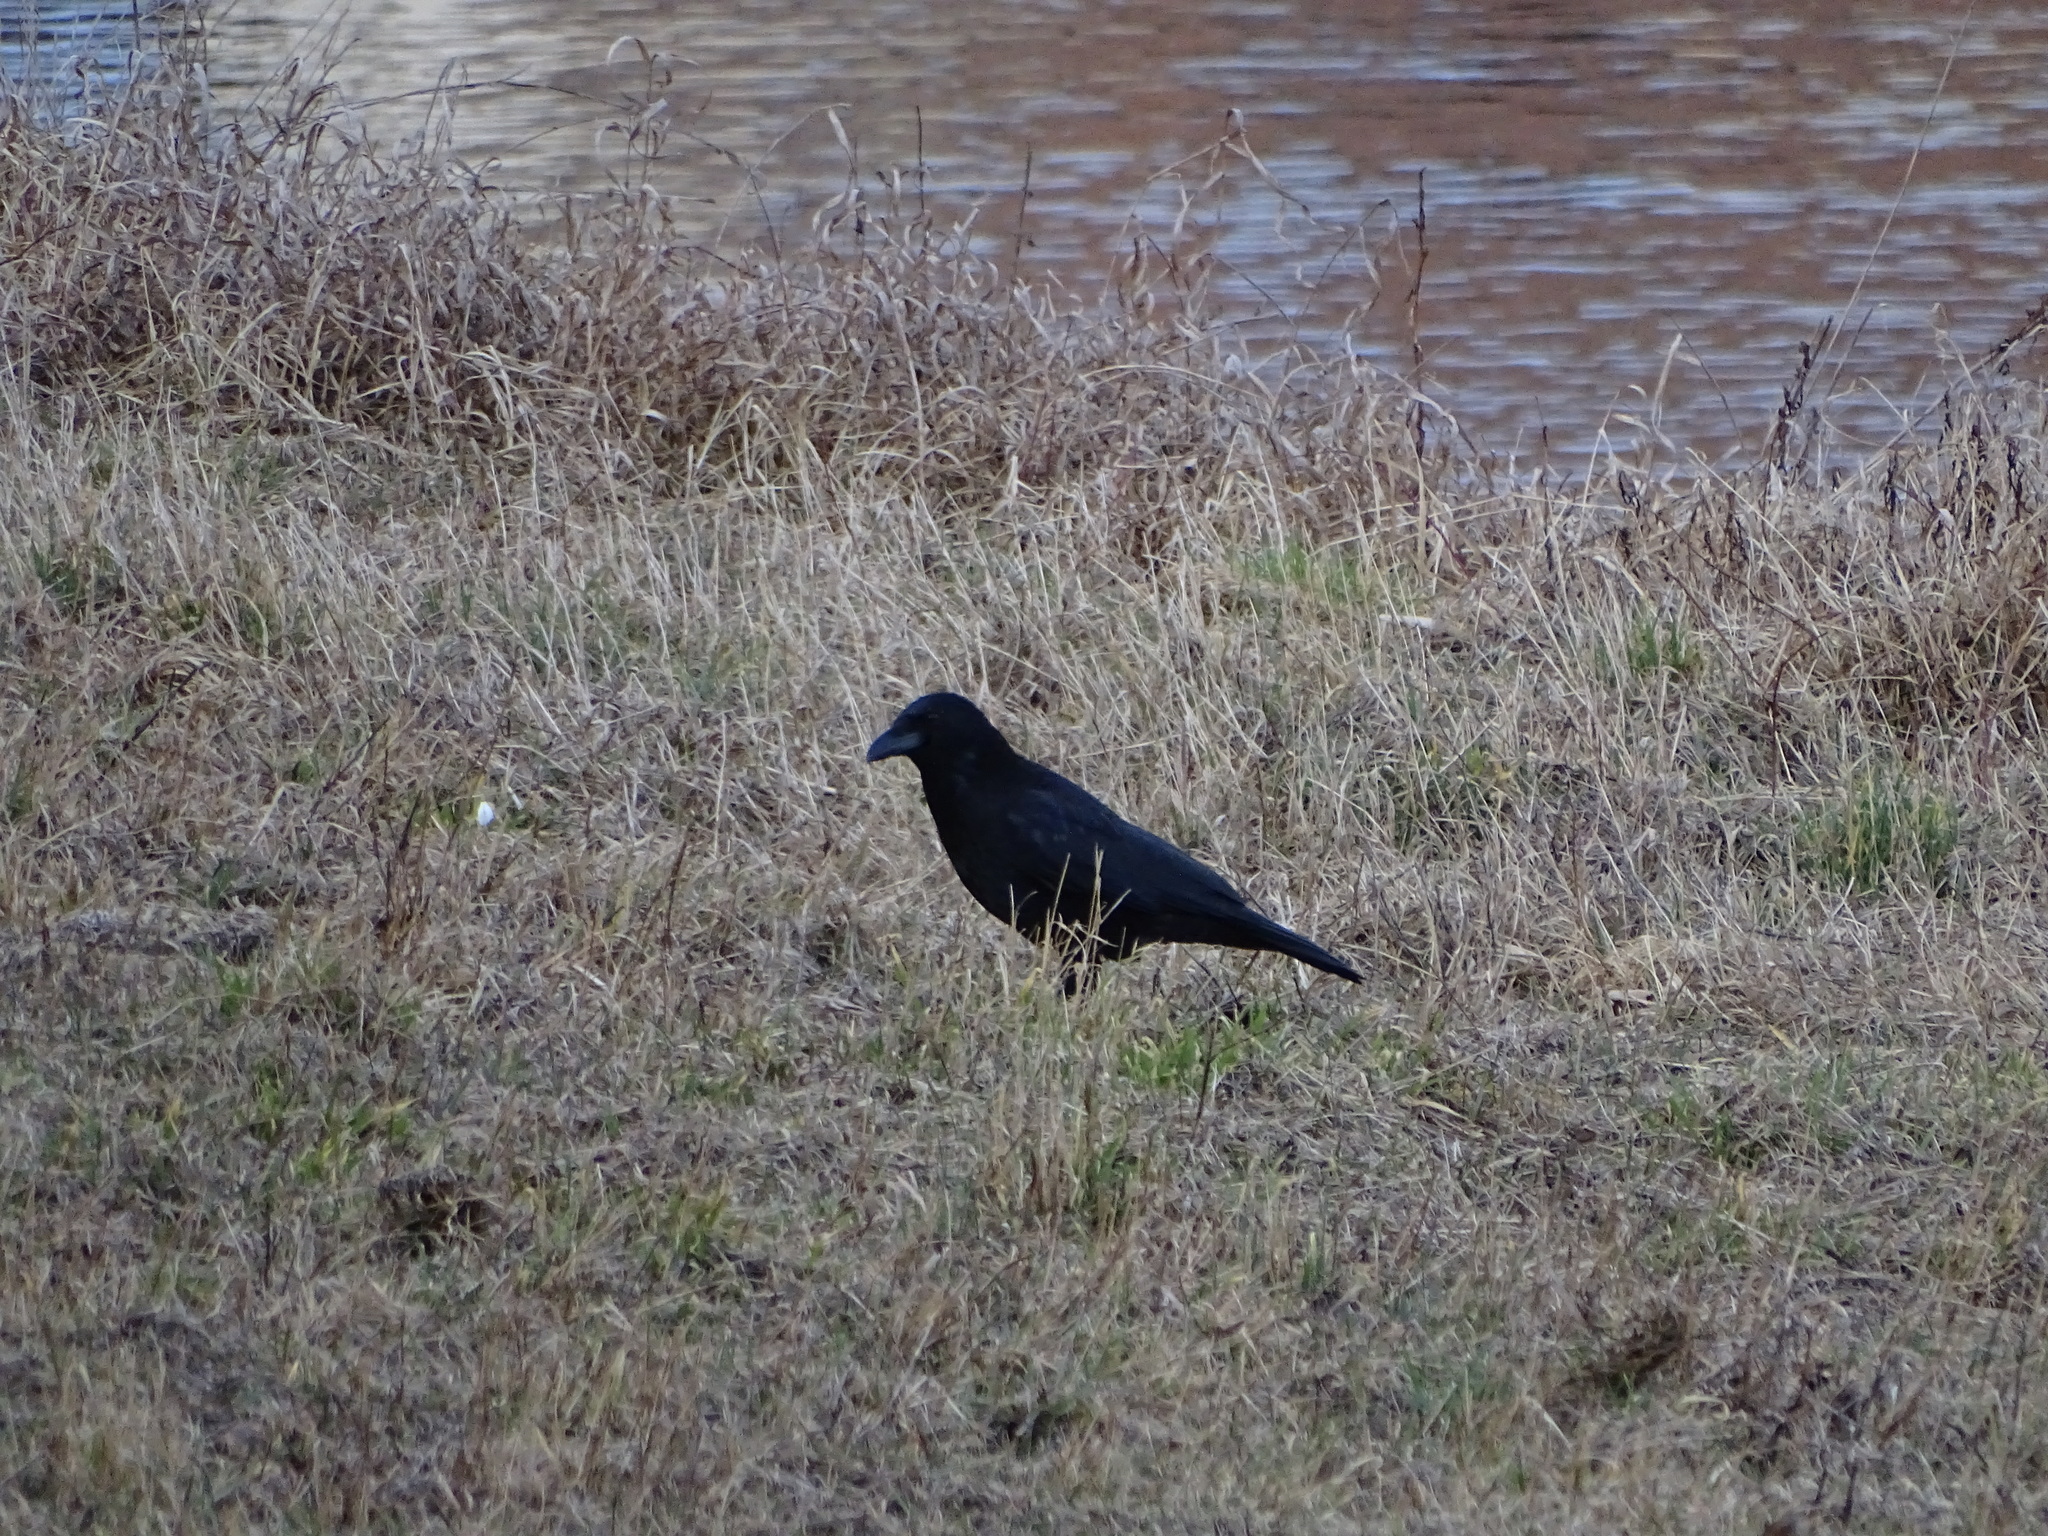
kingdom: Animalia
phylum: Chordata
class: Aves
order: Passeriformes
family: Corvidae
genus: Corvus
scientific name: Corvus corone
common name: Carrion crow
